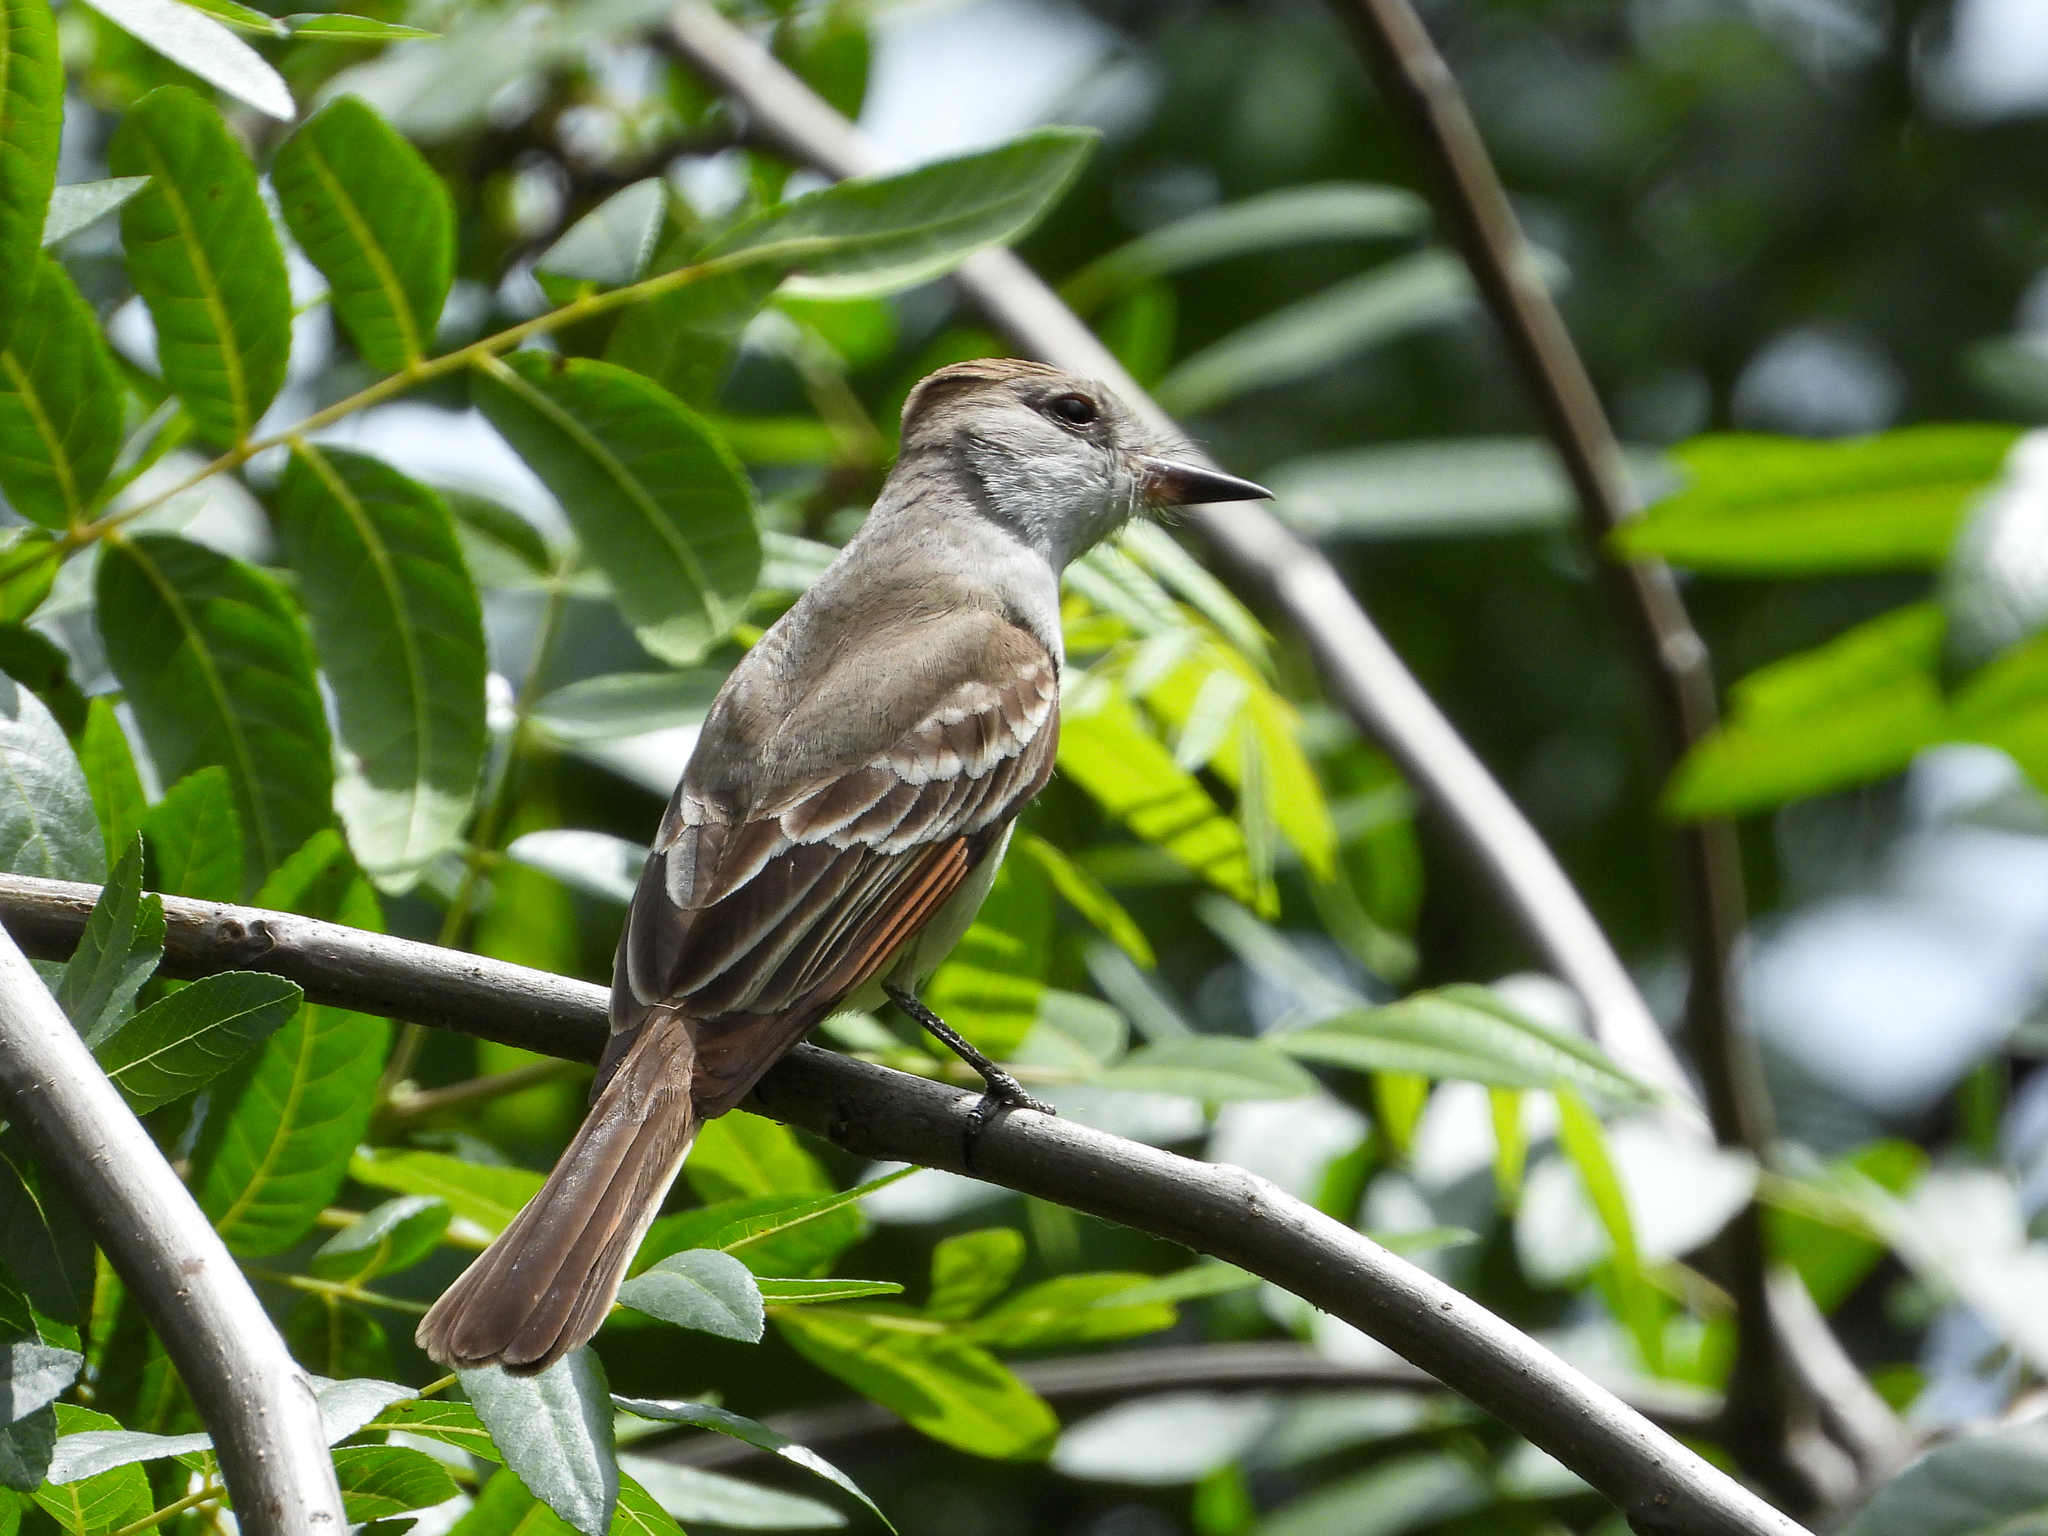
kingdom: Animalia
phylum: Chordata
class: Aves
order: Passeriformes
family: Tyrannidae
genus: Myiarchus
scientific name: Myiarchus cinerascens
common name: Ash-throated flycatcher
